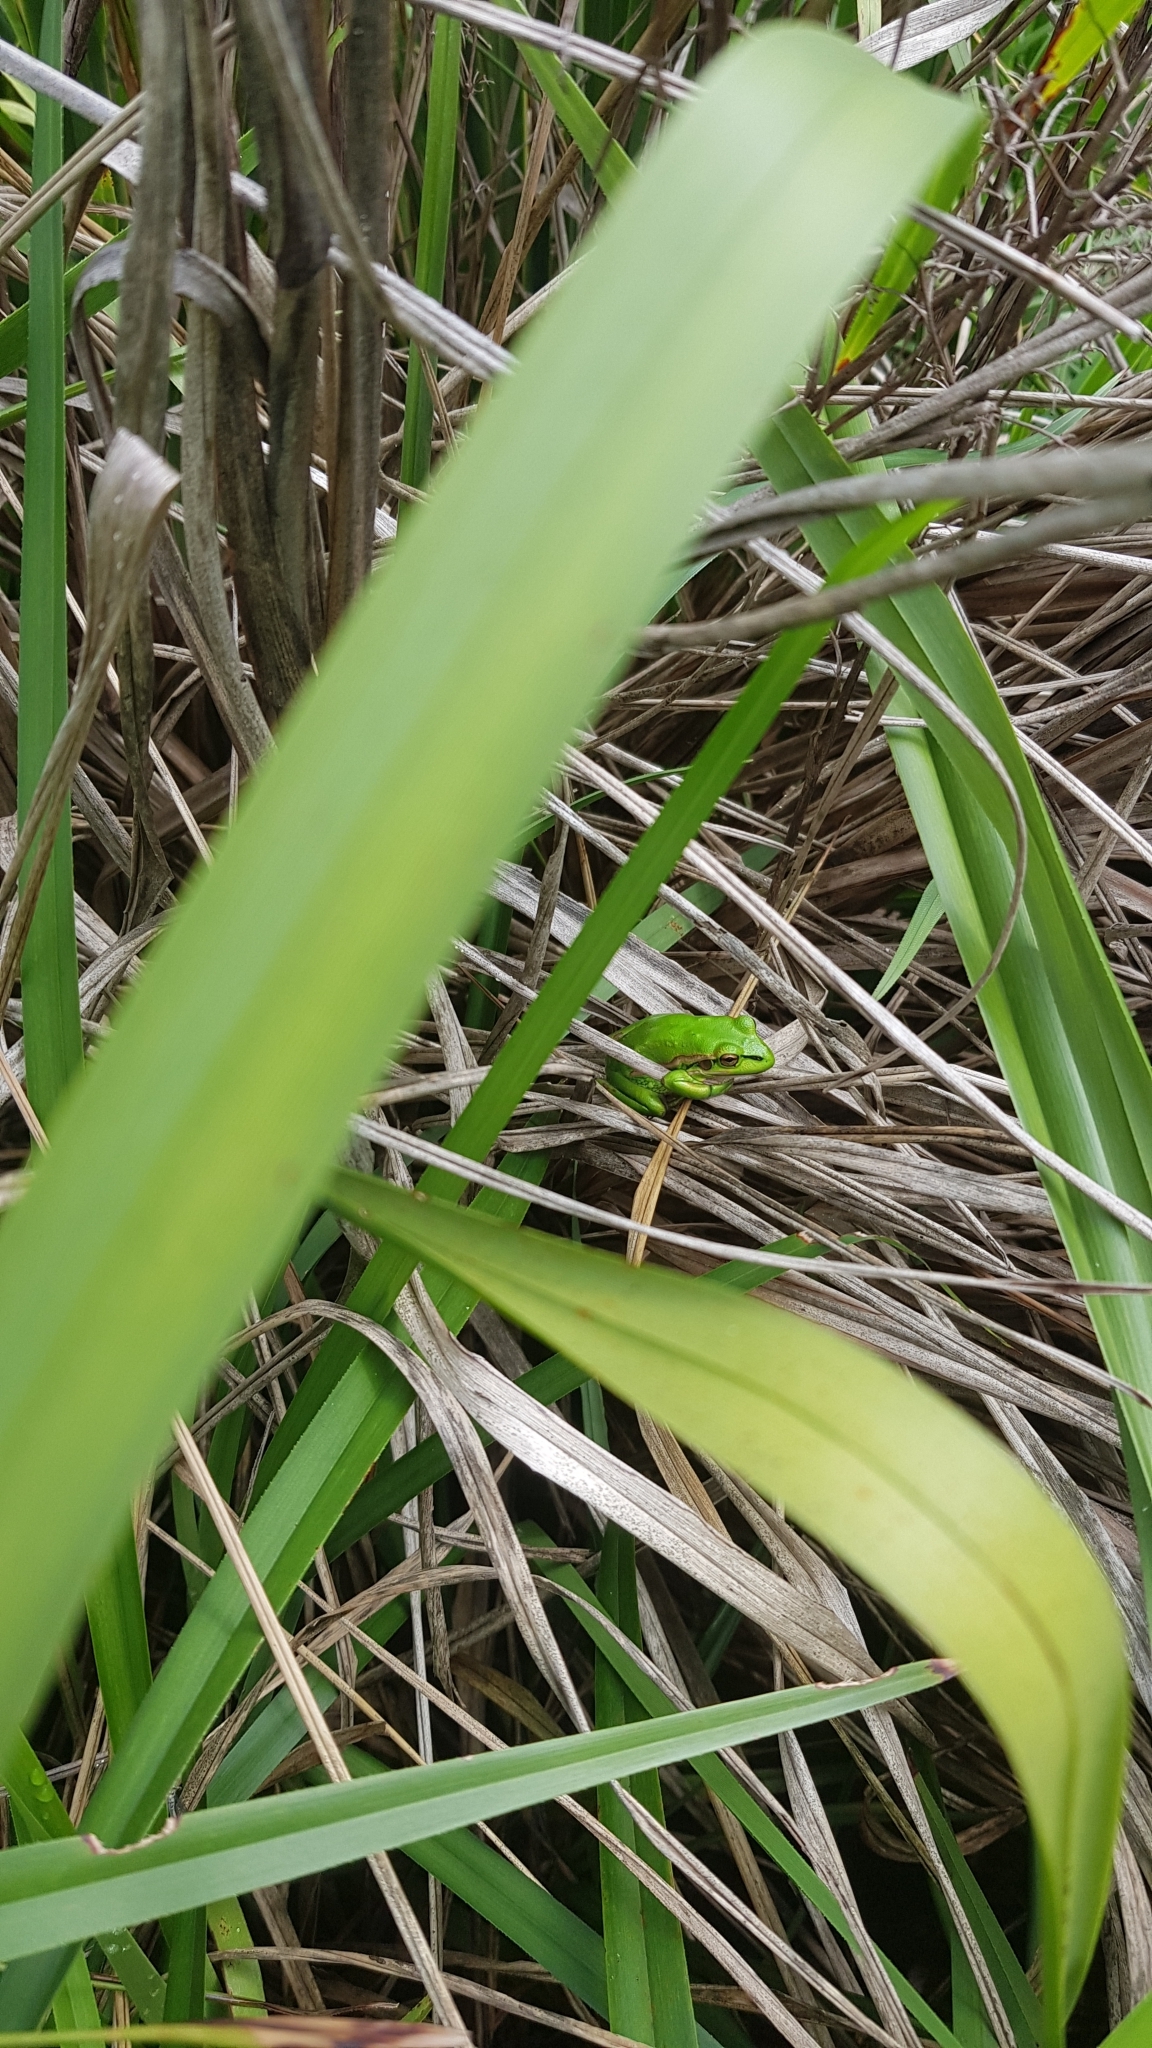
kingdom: Animalia
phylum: Chordata
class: Amphibia
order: Anura
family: Pelodryadidae
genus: Ranoidea
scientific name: Ranoidea aurea
